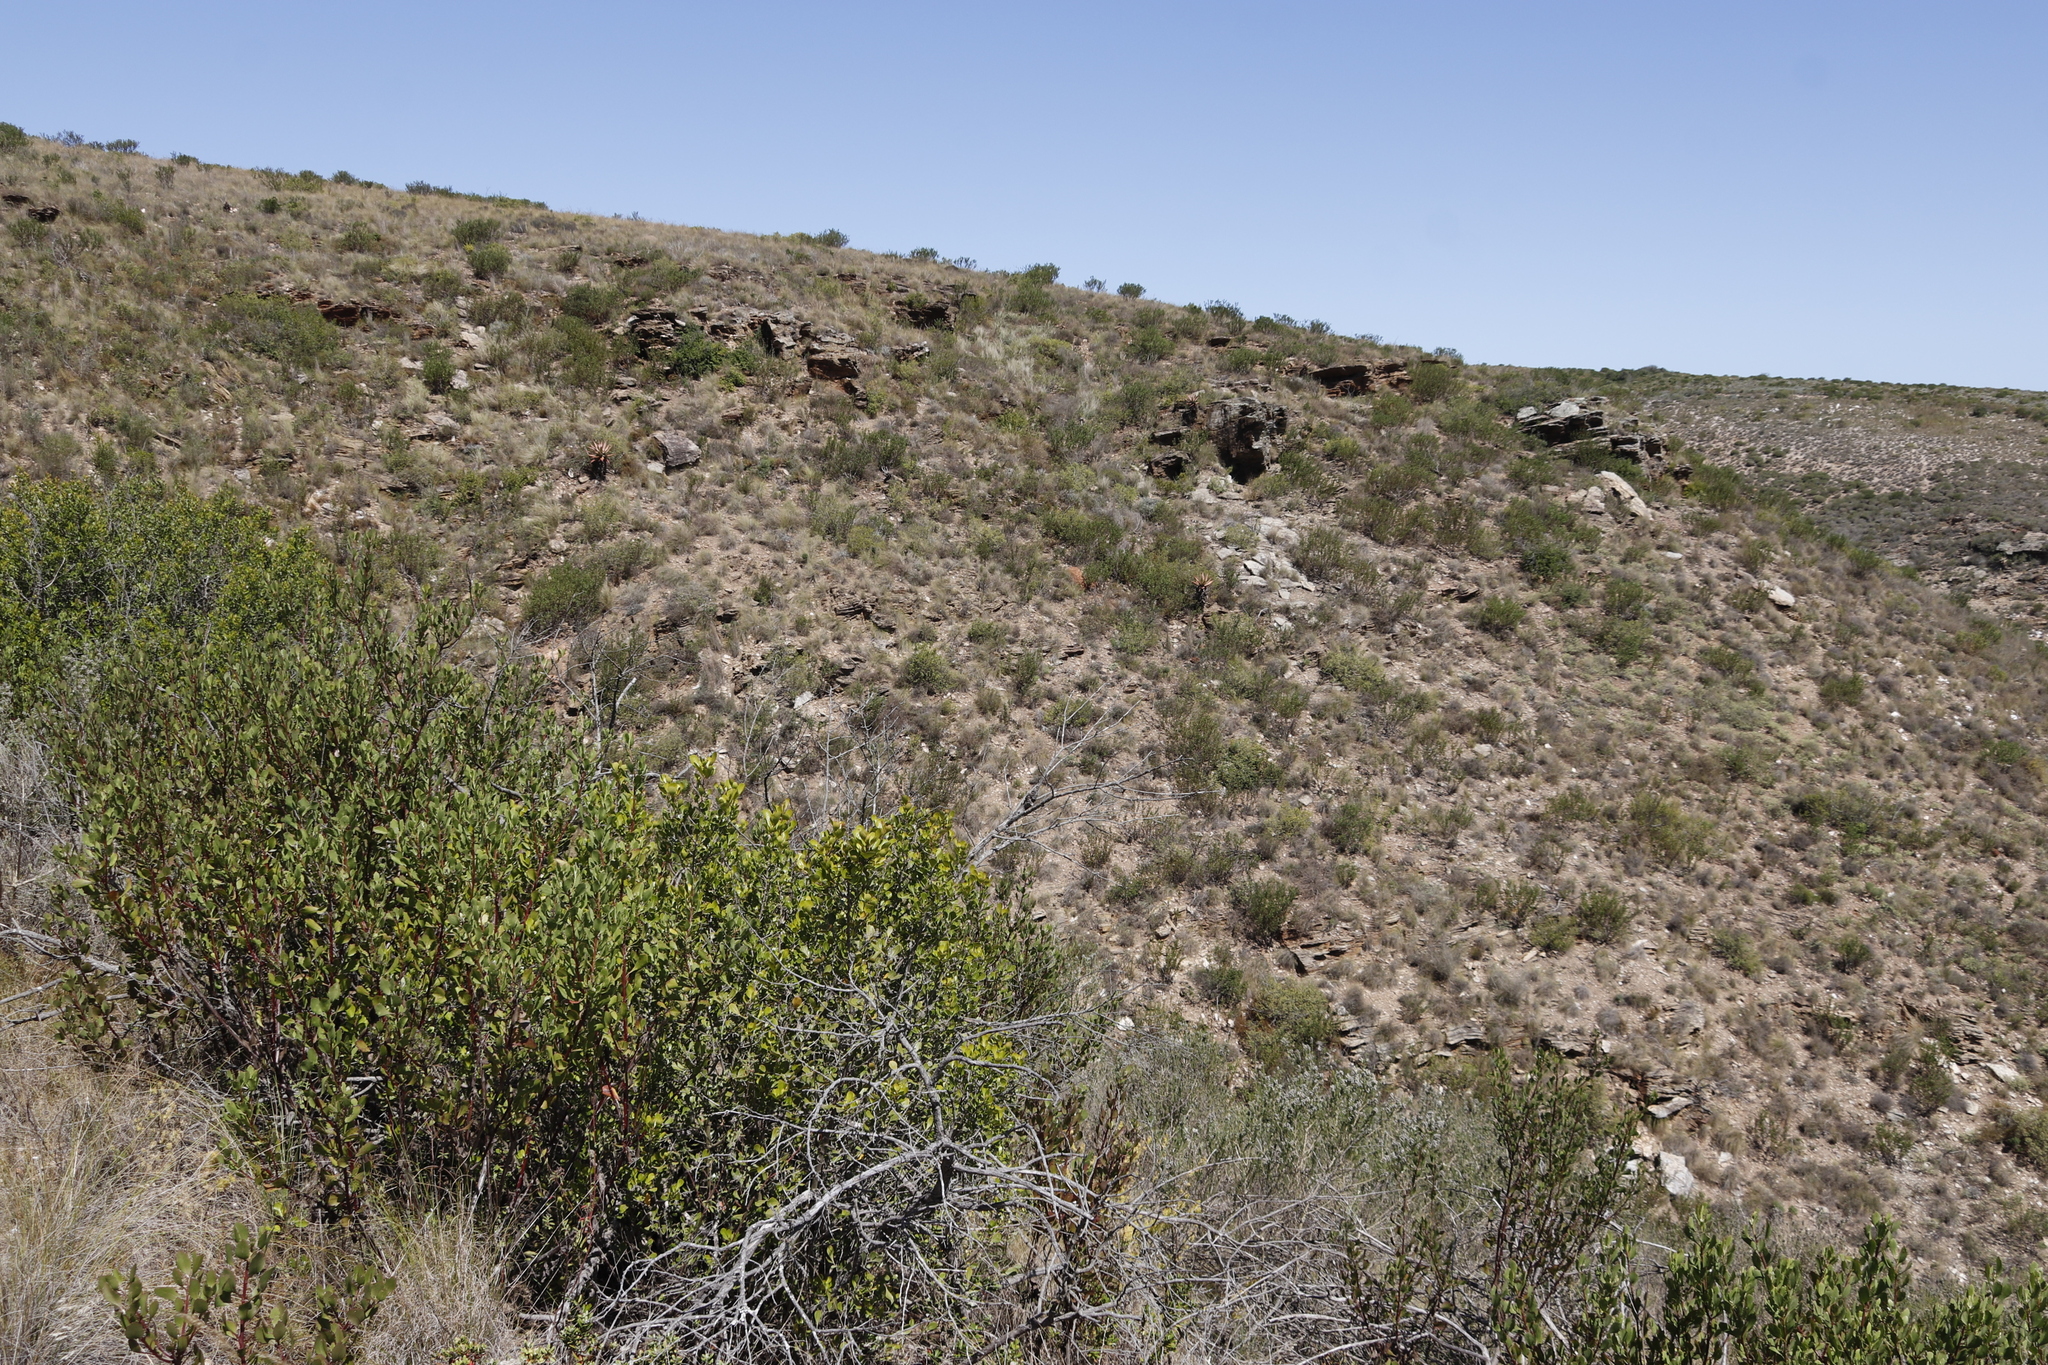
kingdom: Plantae
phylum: Tracheophyta
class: Liliopsida
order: Asparagales
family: Asphodelaceae
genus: Aloe
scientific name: Aloe ferox
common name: Bitter aloe
